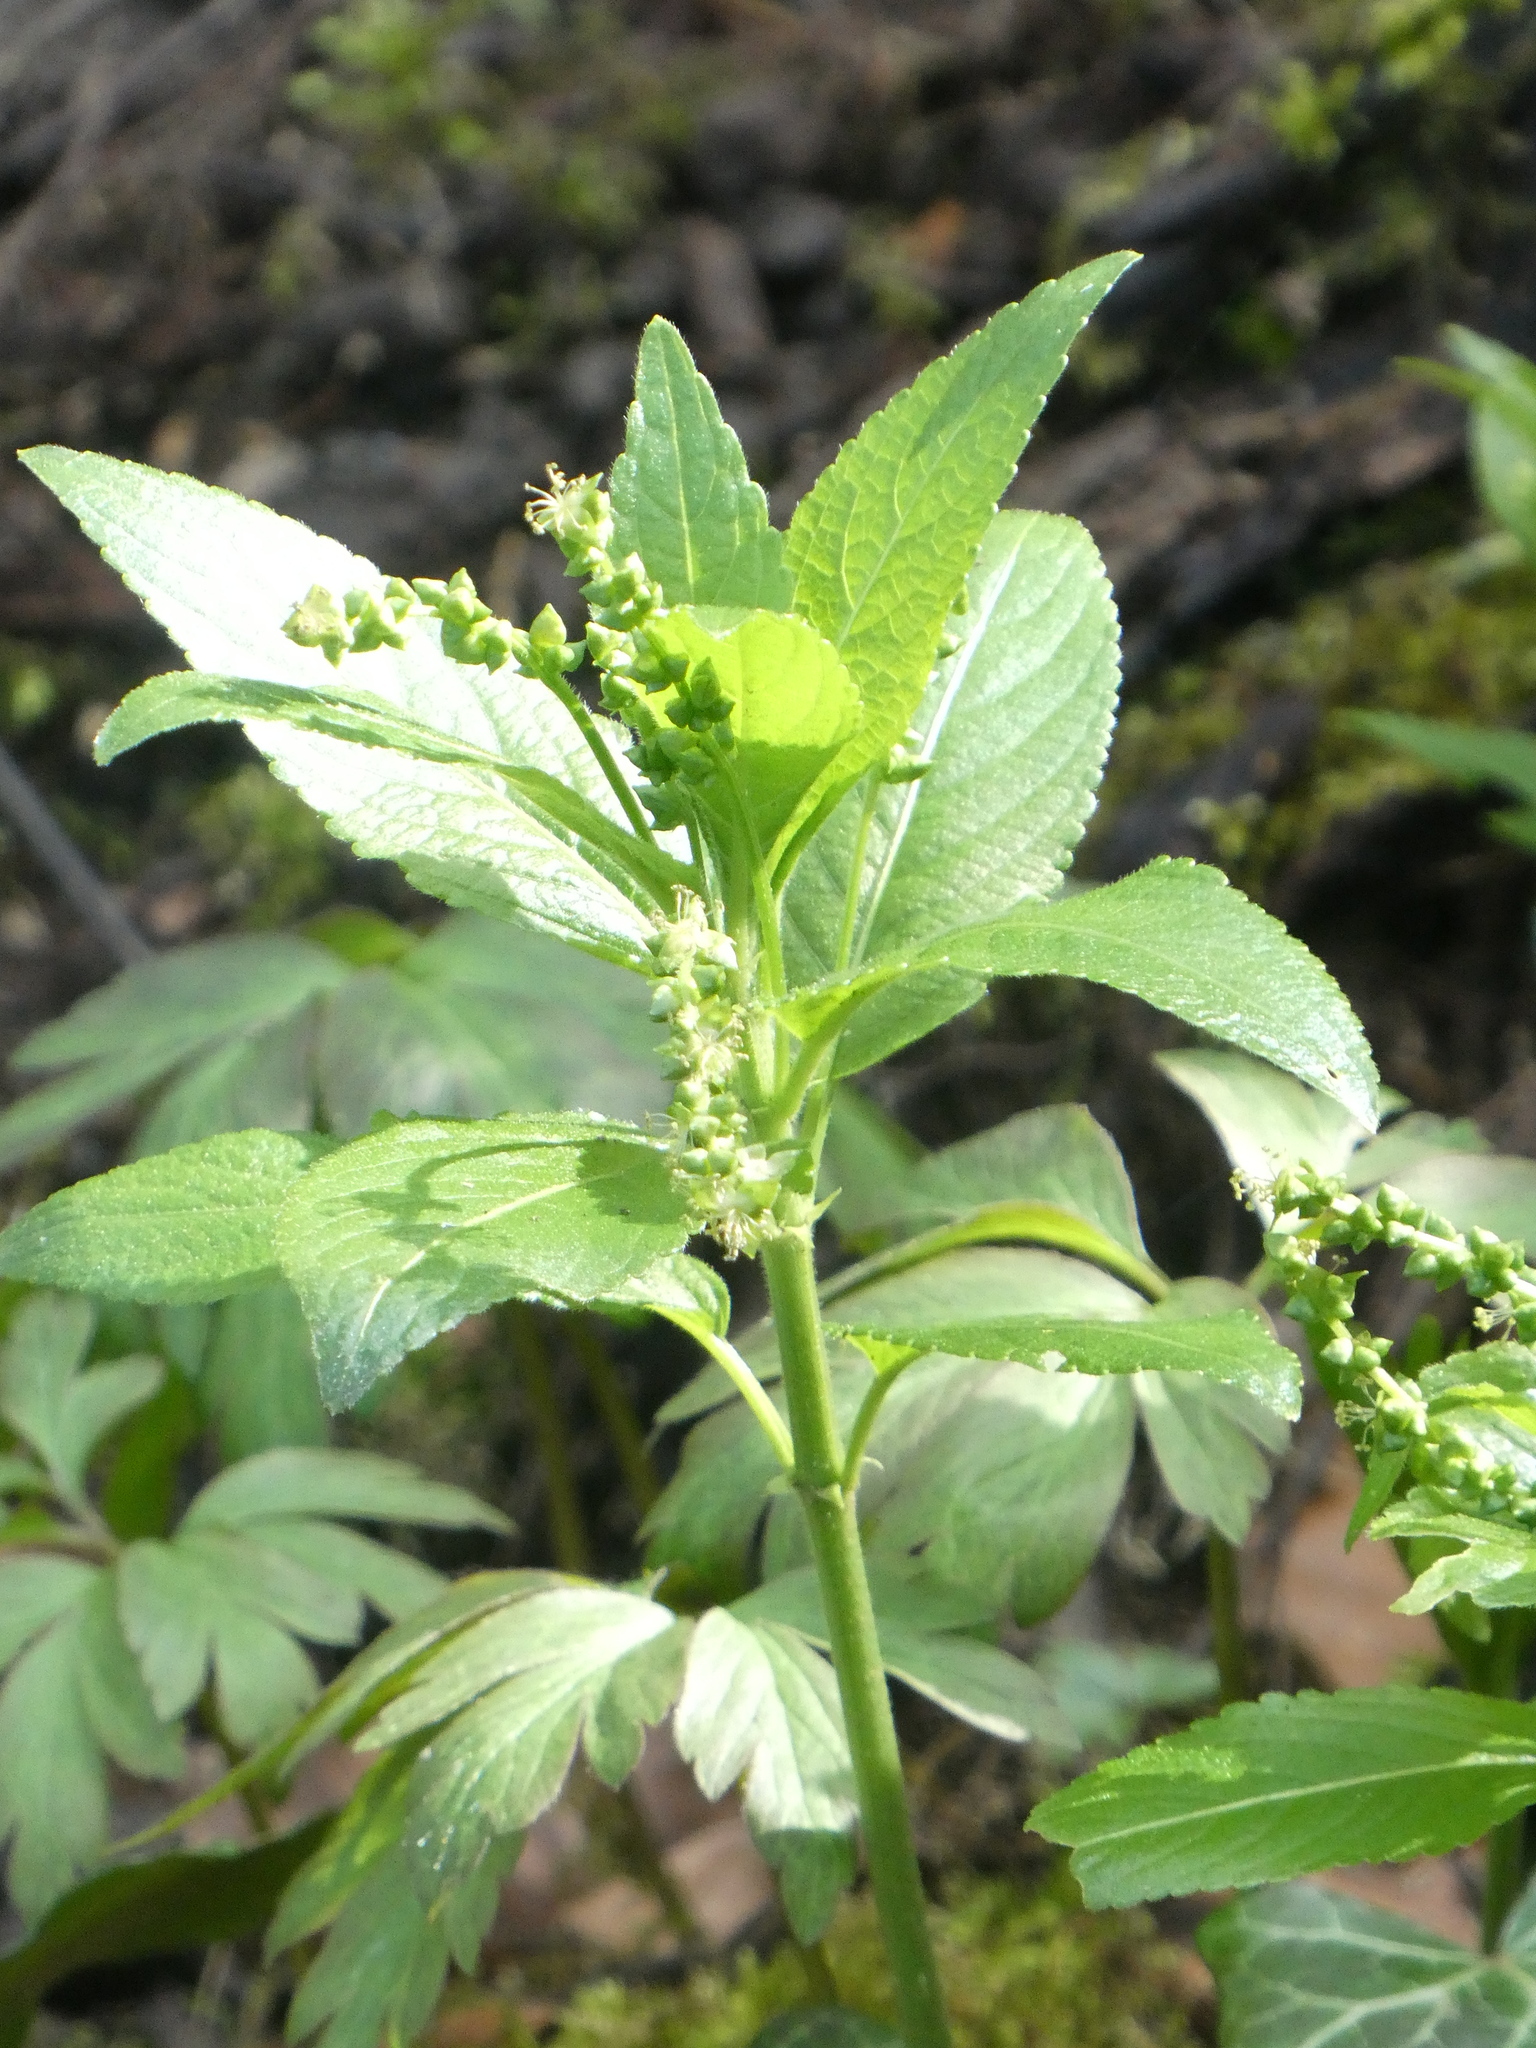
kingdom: Plantae
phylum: Tracheophyta
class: Magnoliopsida
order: Malpighiales
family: Euphorbiaceae
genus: Mercurialis
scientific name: Mercurialis perennis
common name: Dog mercury
